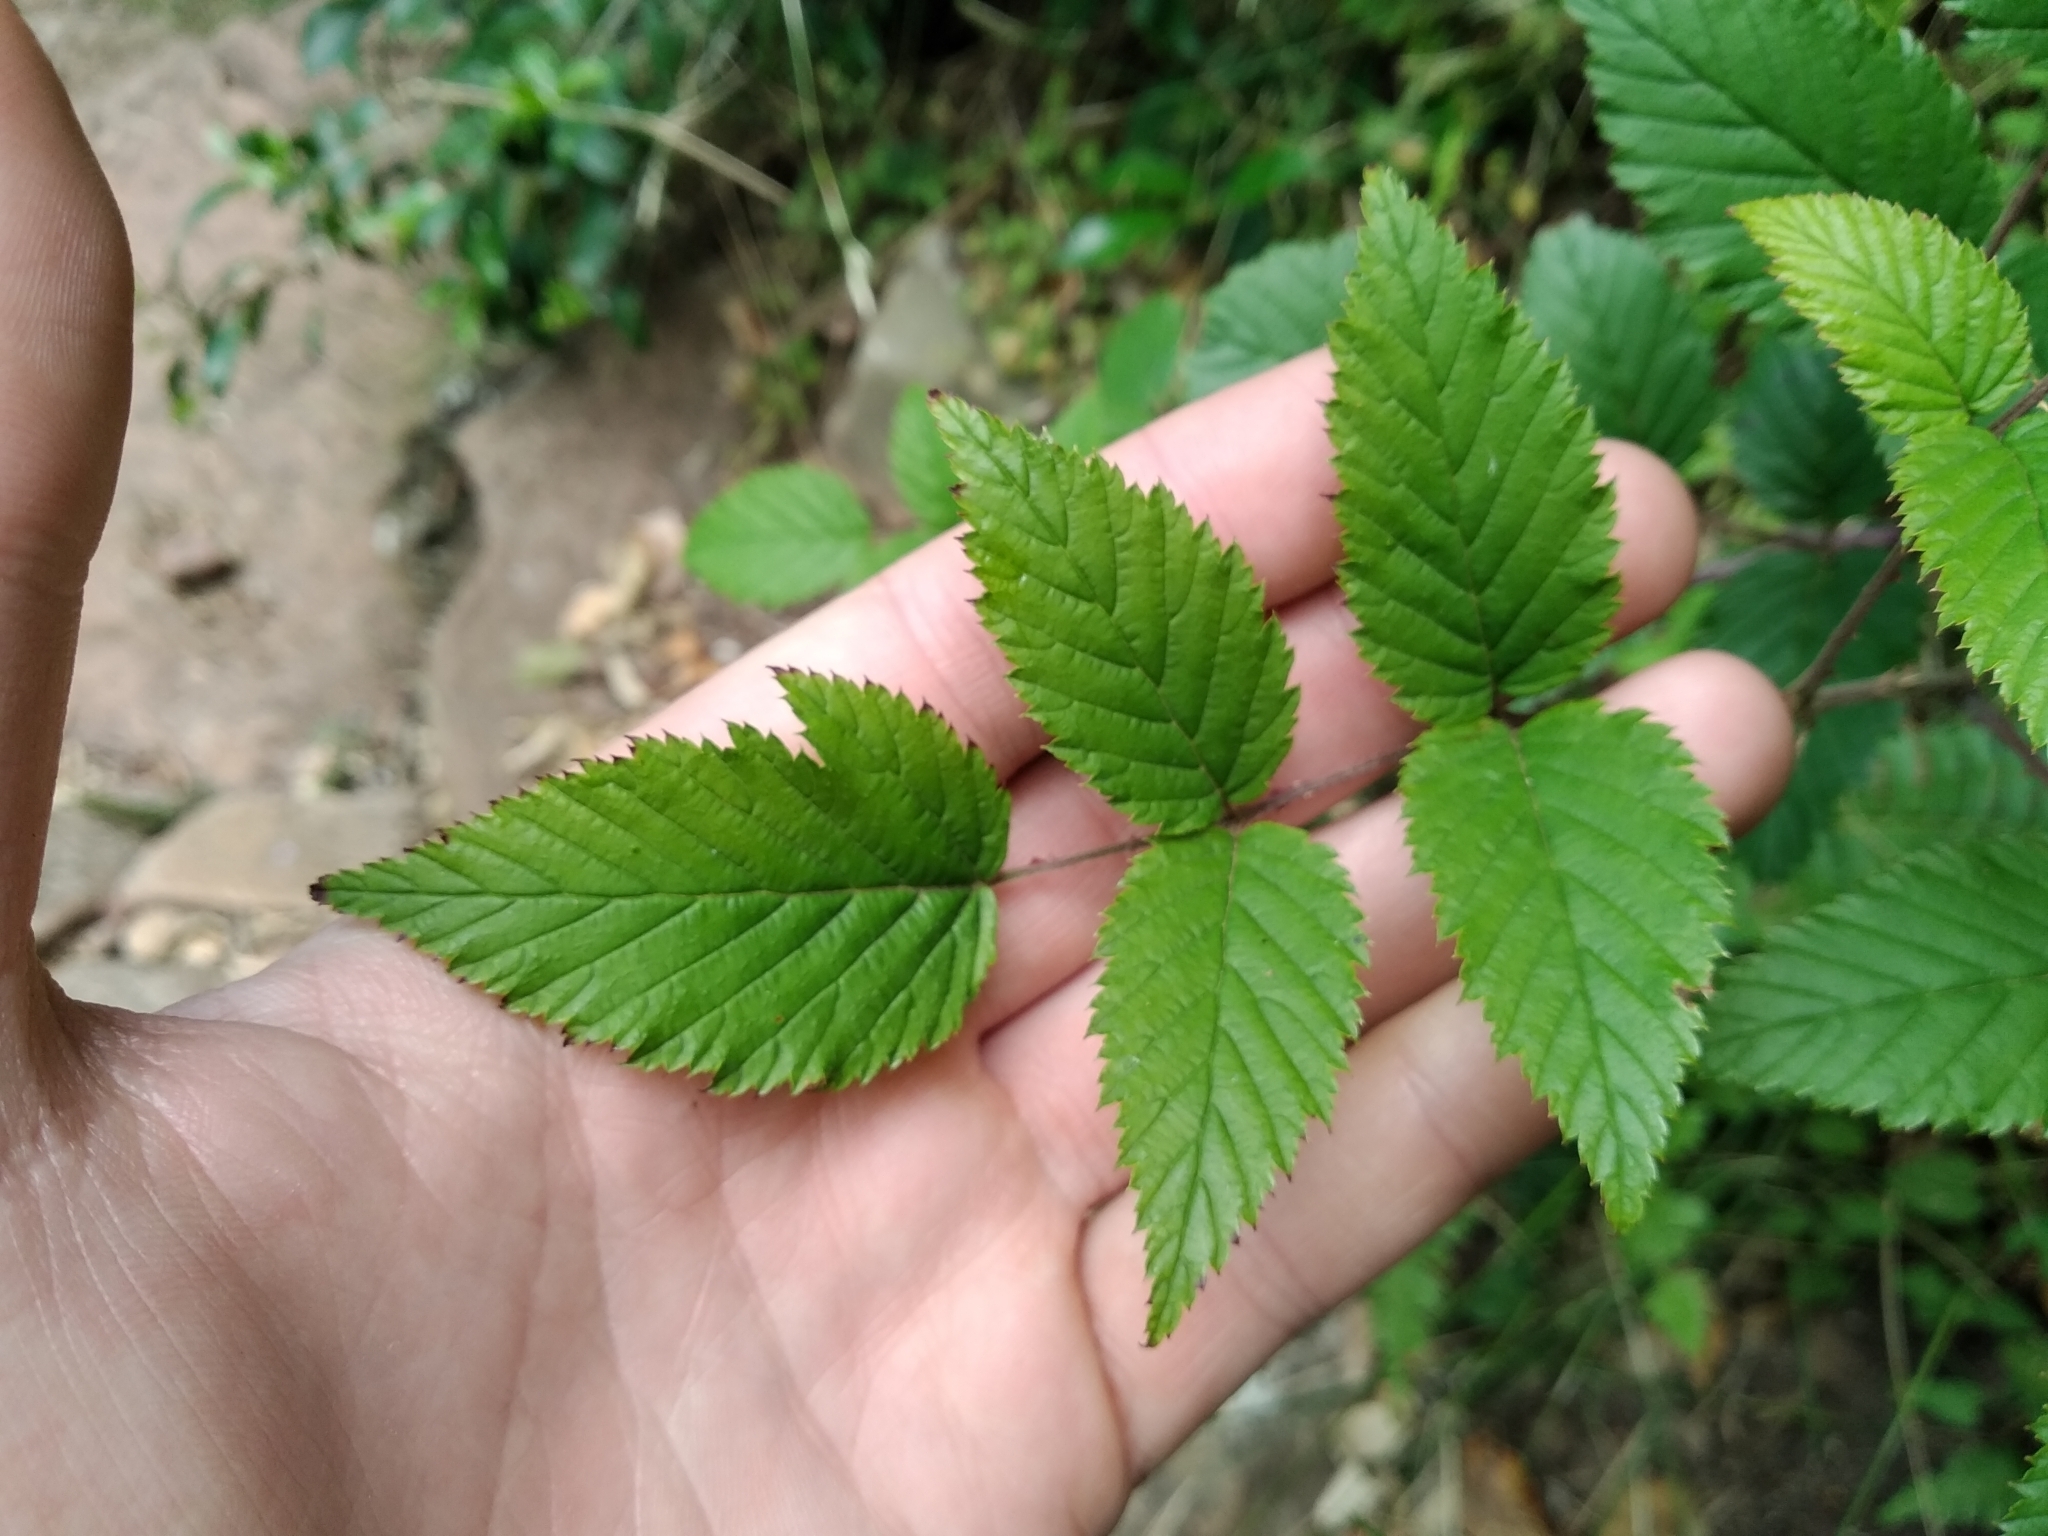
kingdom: Plantae
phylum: Tracheophyta
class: Magnoliopsida
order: Rosales
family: Rosaceae
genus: Rubus
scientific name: Rubus pinnatus
